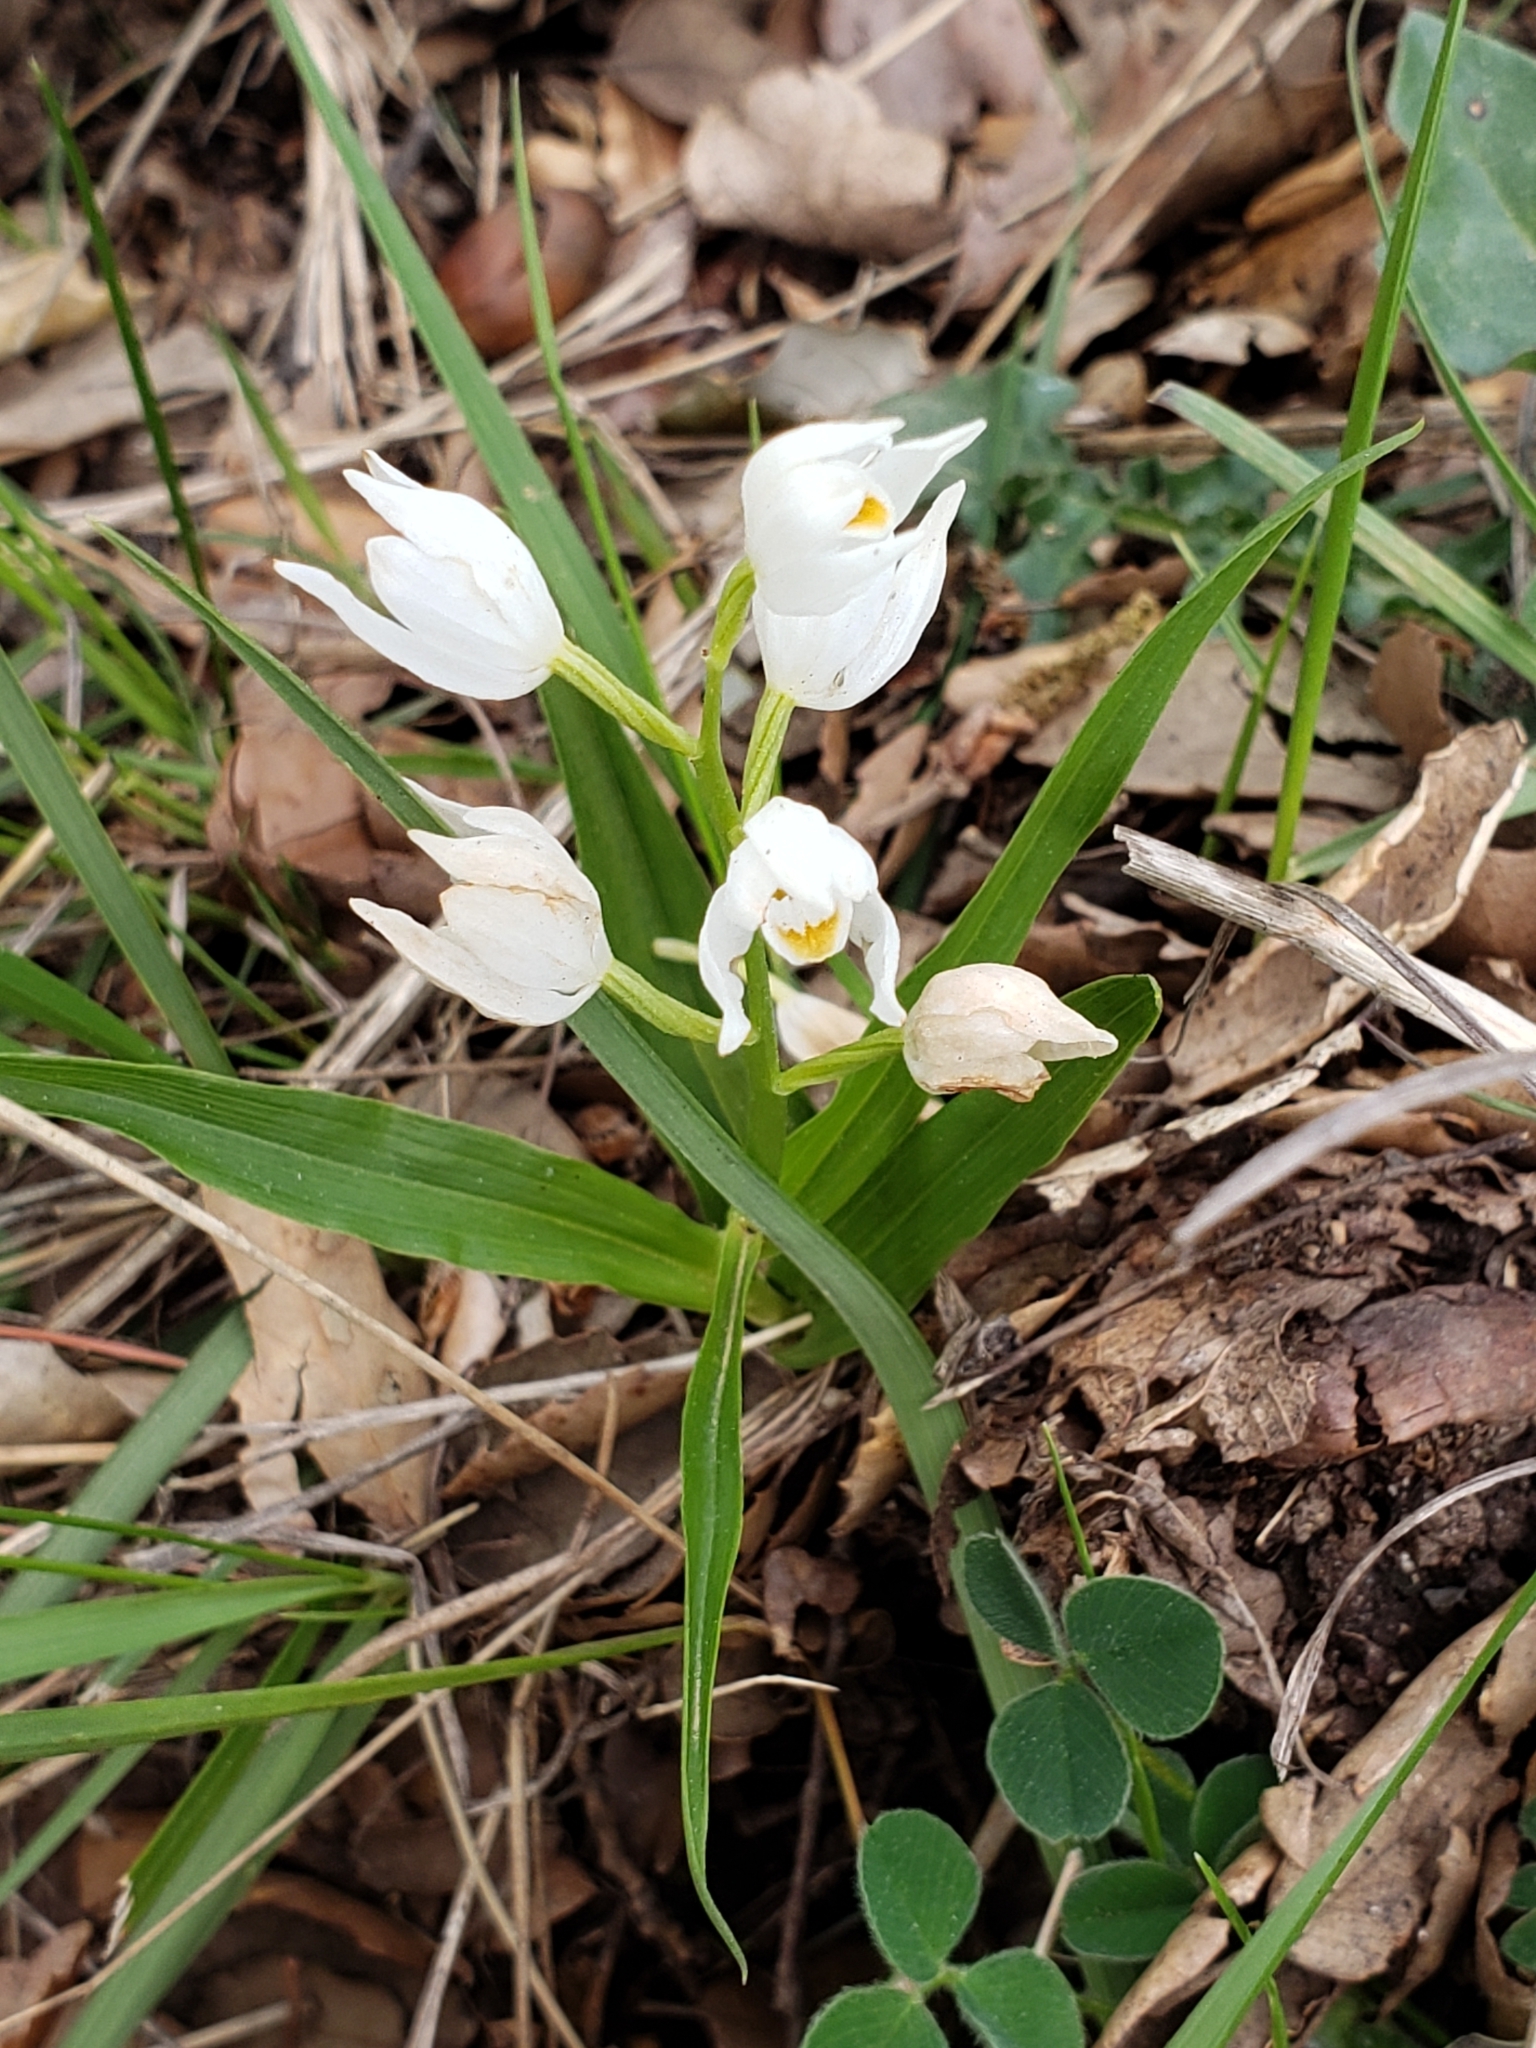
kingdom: Plantae
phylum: Tracheophyta
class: Liliopsida
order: Asparagales
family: Orchidaceae
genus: Cephalanthera
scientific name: Cephalanthera longifolia
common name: Narrow-leaved helleborine
